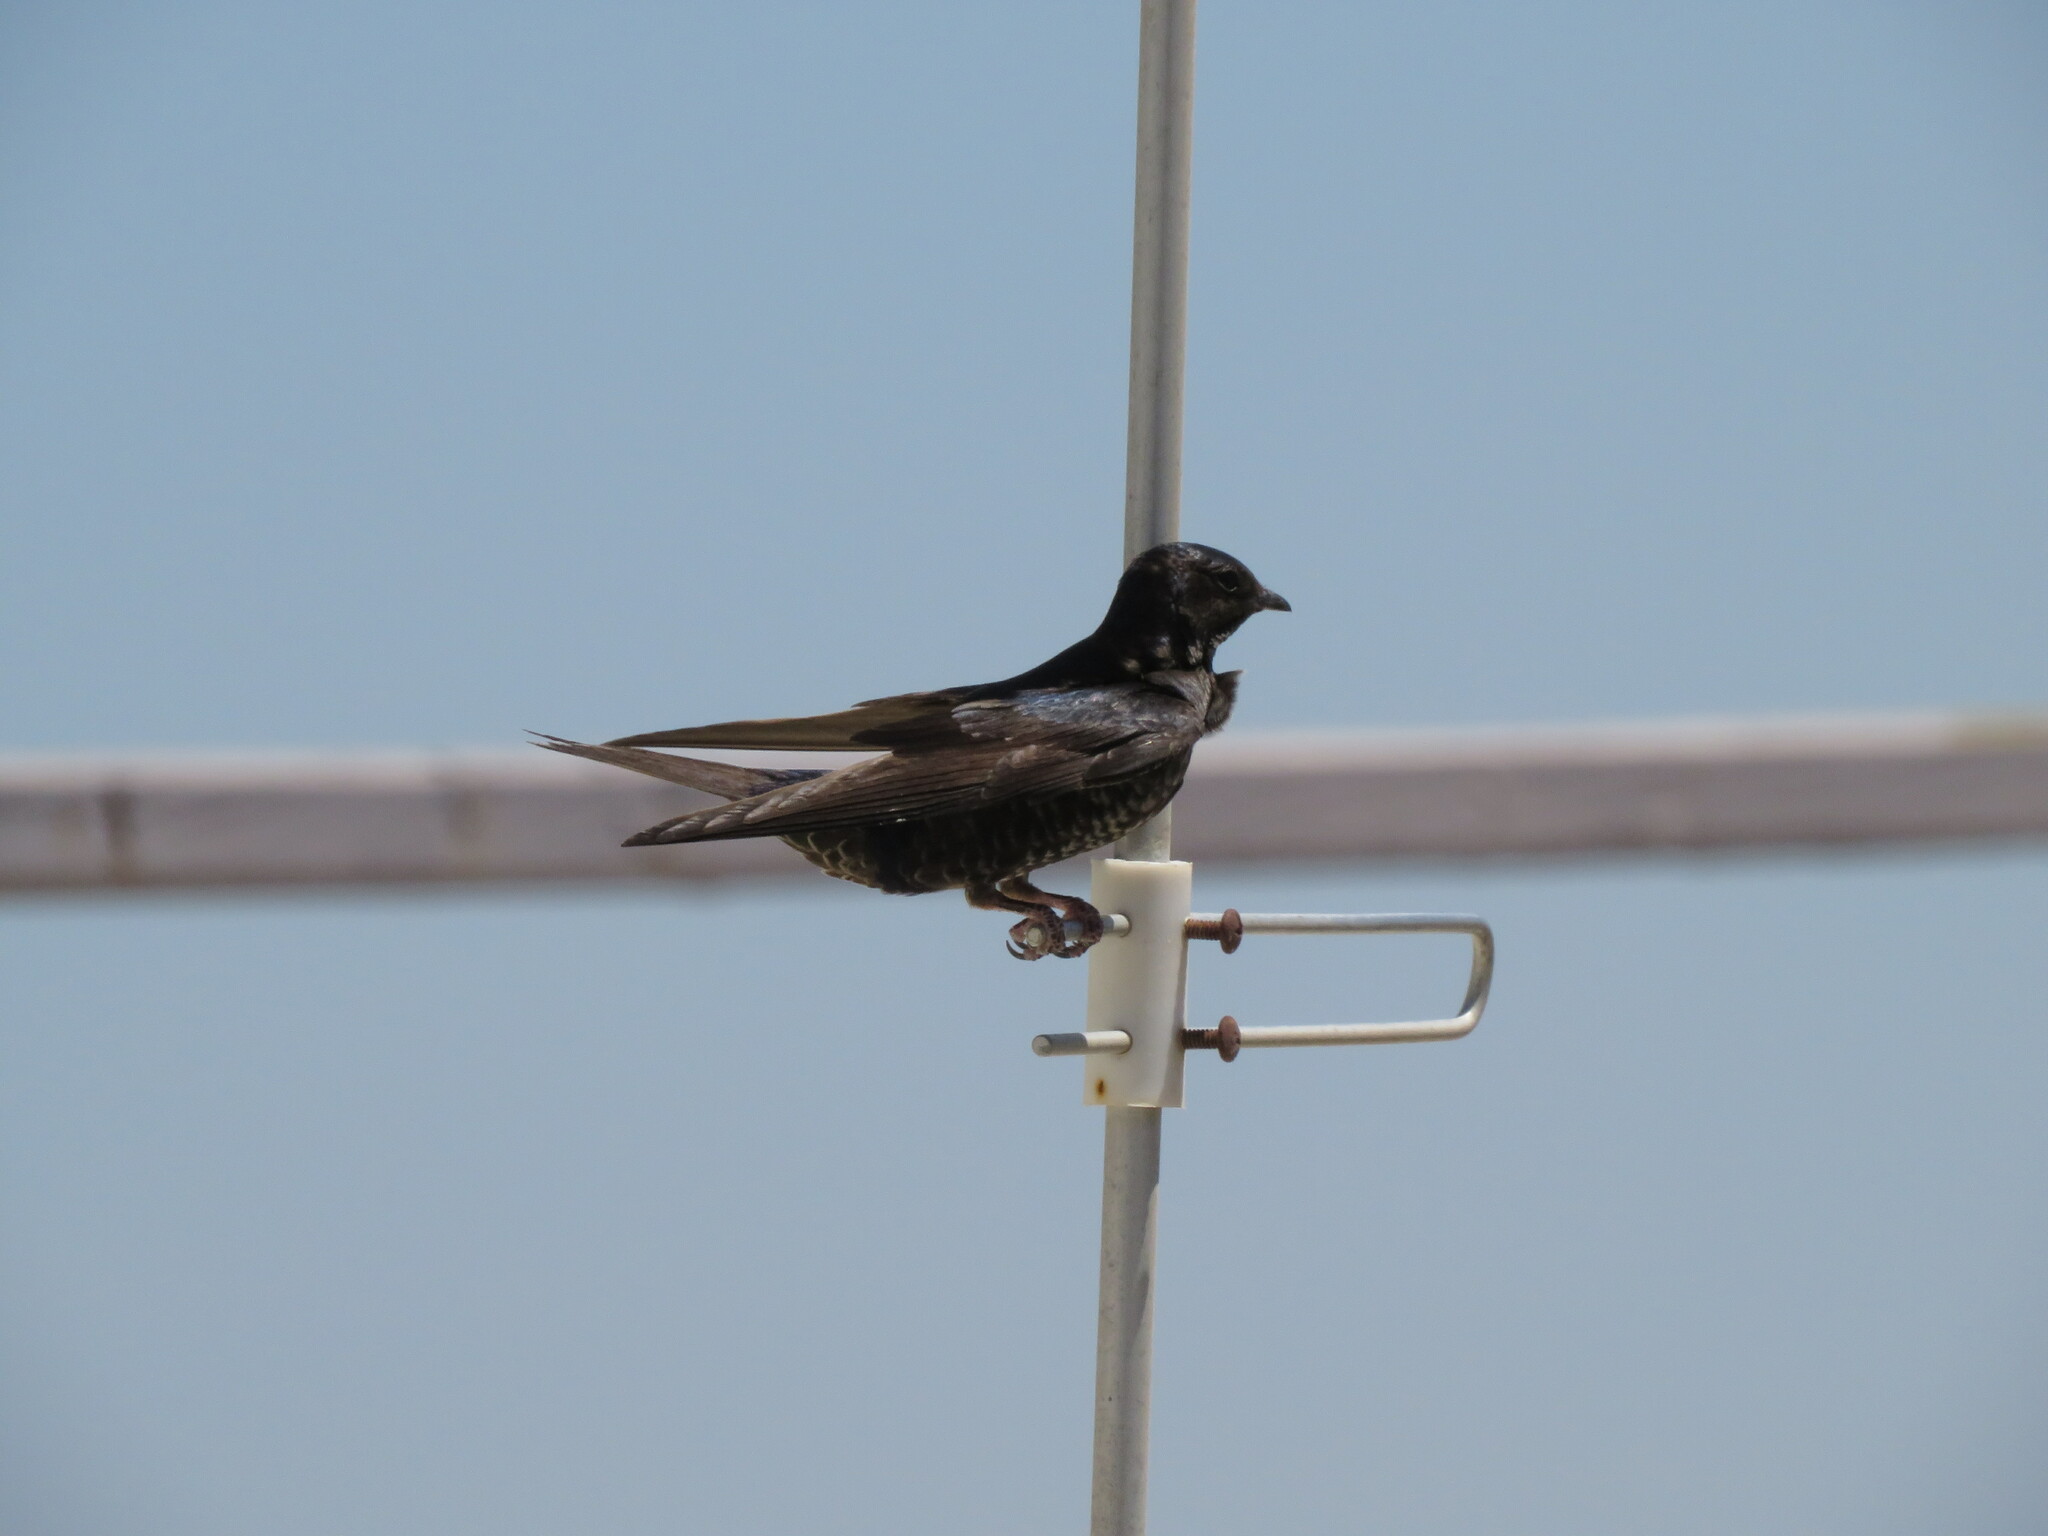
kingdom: Animalia
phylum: Chordata
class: Aves
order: Passeriformes
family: Hirundinidae
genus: Progne
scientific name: Progne elegans
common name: Southern martin
